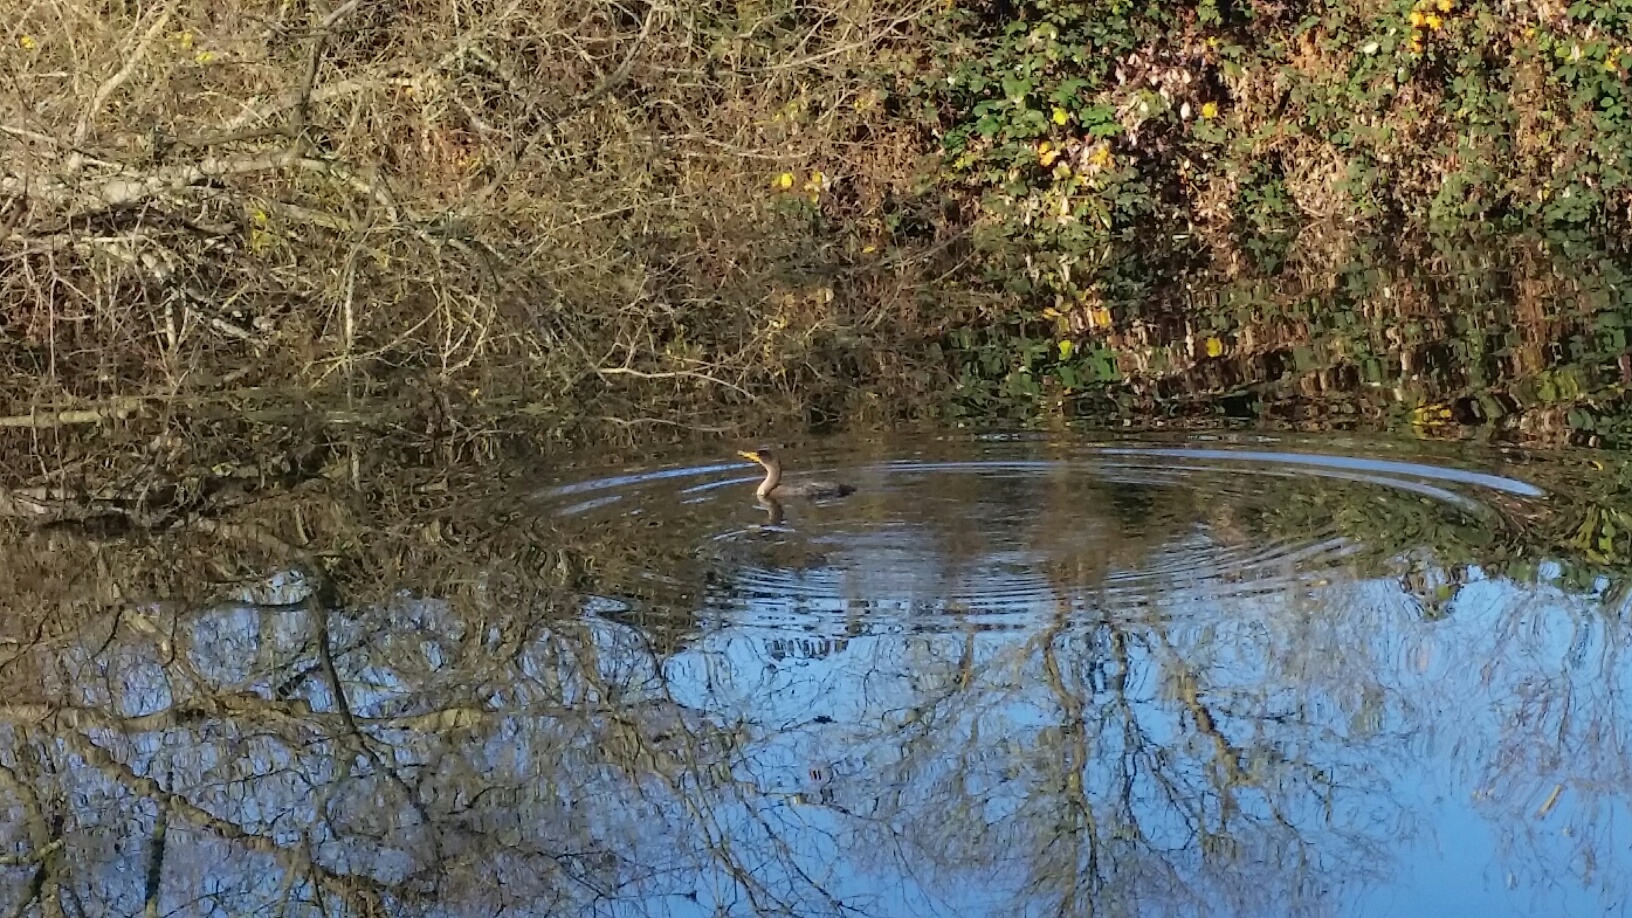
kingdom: Animalia
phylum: Chordata
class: Aves
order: Suliformes
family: Phalacrocoracidae
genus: Phalacrocorax
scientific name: Phalacrocorax auritus
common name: Double-crested cormorant
